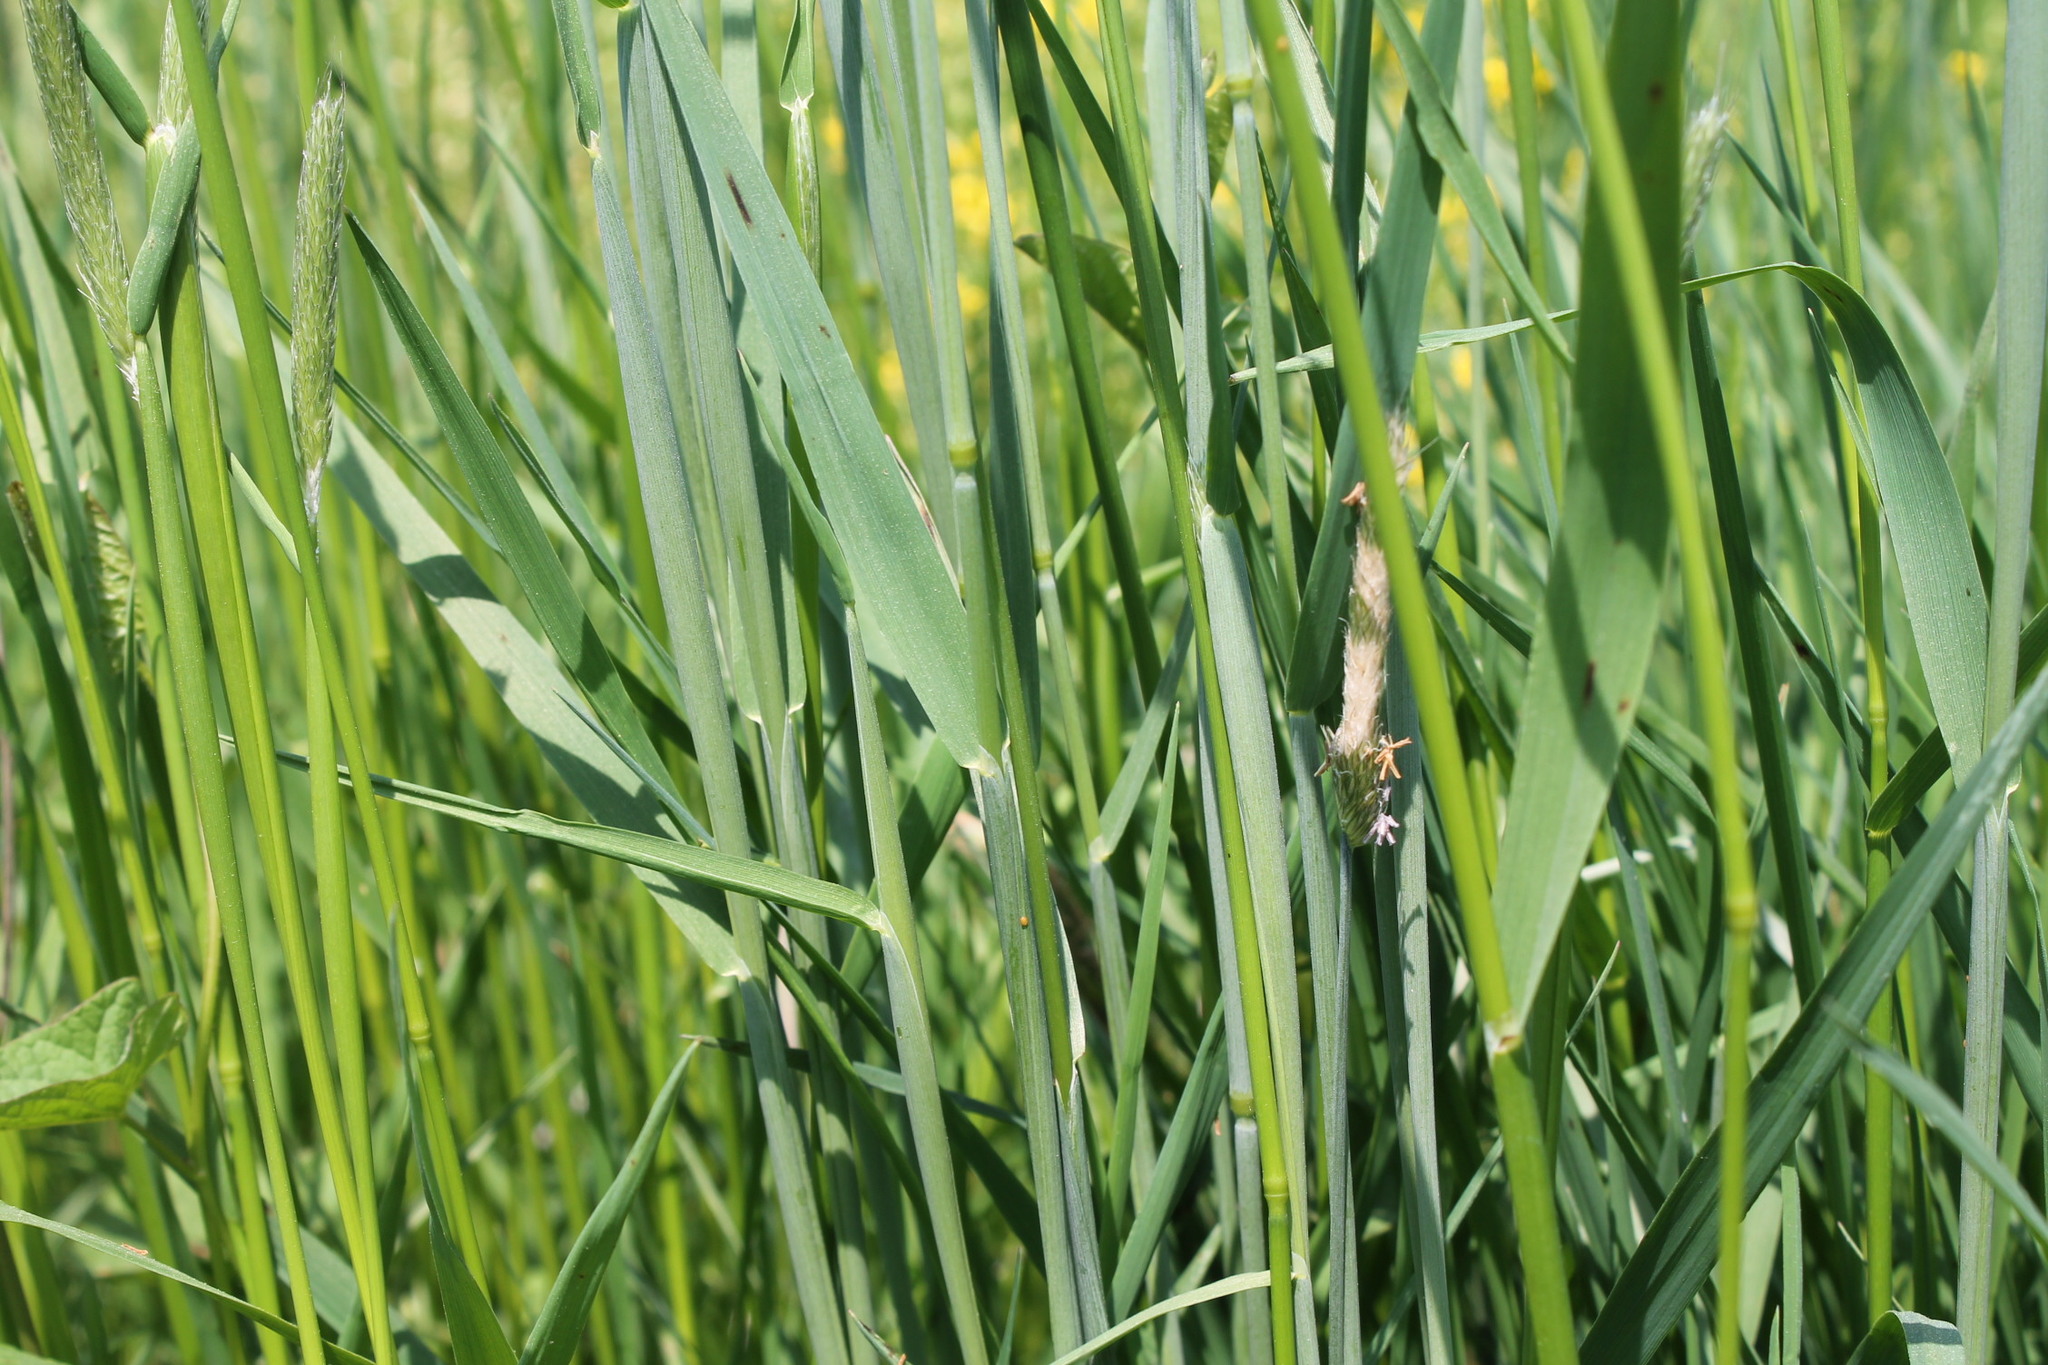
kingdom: Plantae
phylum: Tracheophyta
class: Liliopsida
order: Poales
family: Poaceae
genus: Alopecurus
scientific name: Alopecurus pratensis
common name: Meadow foxtail
